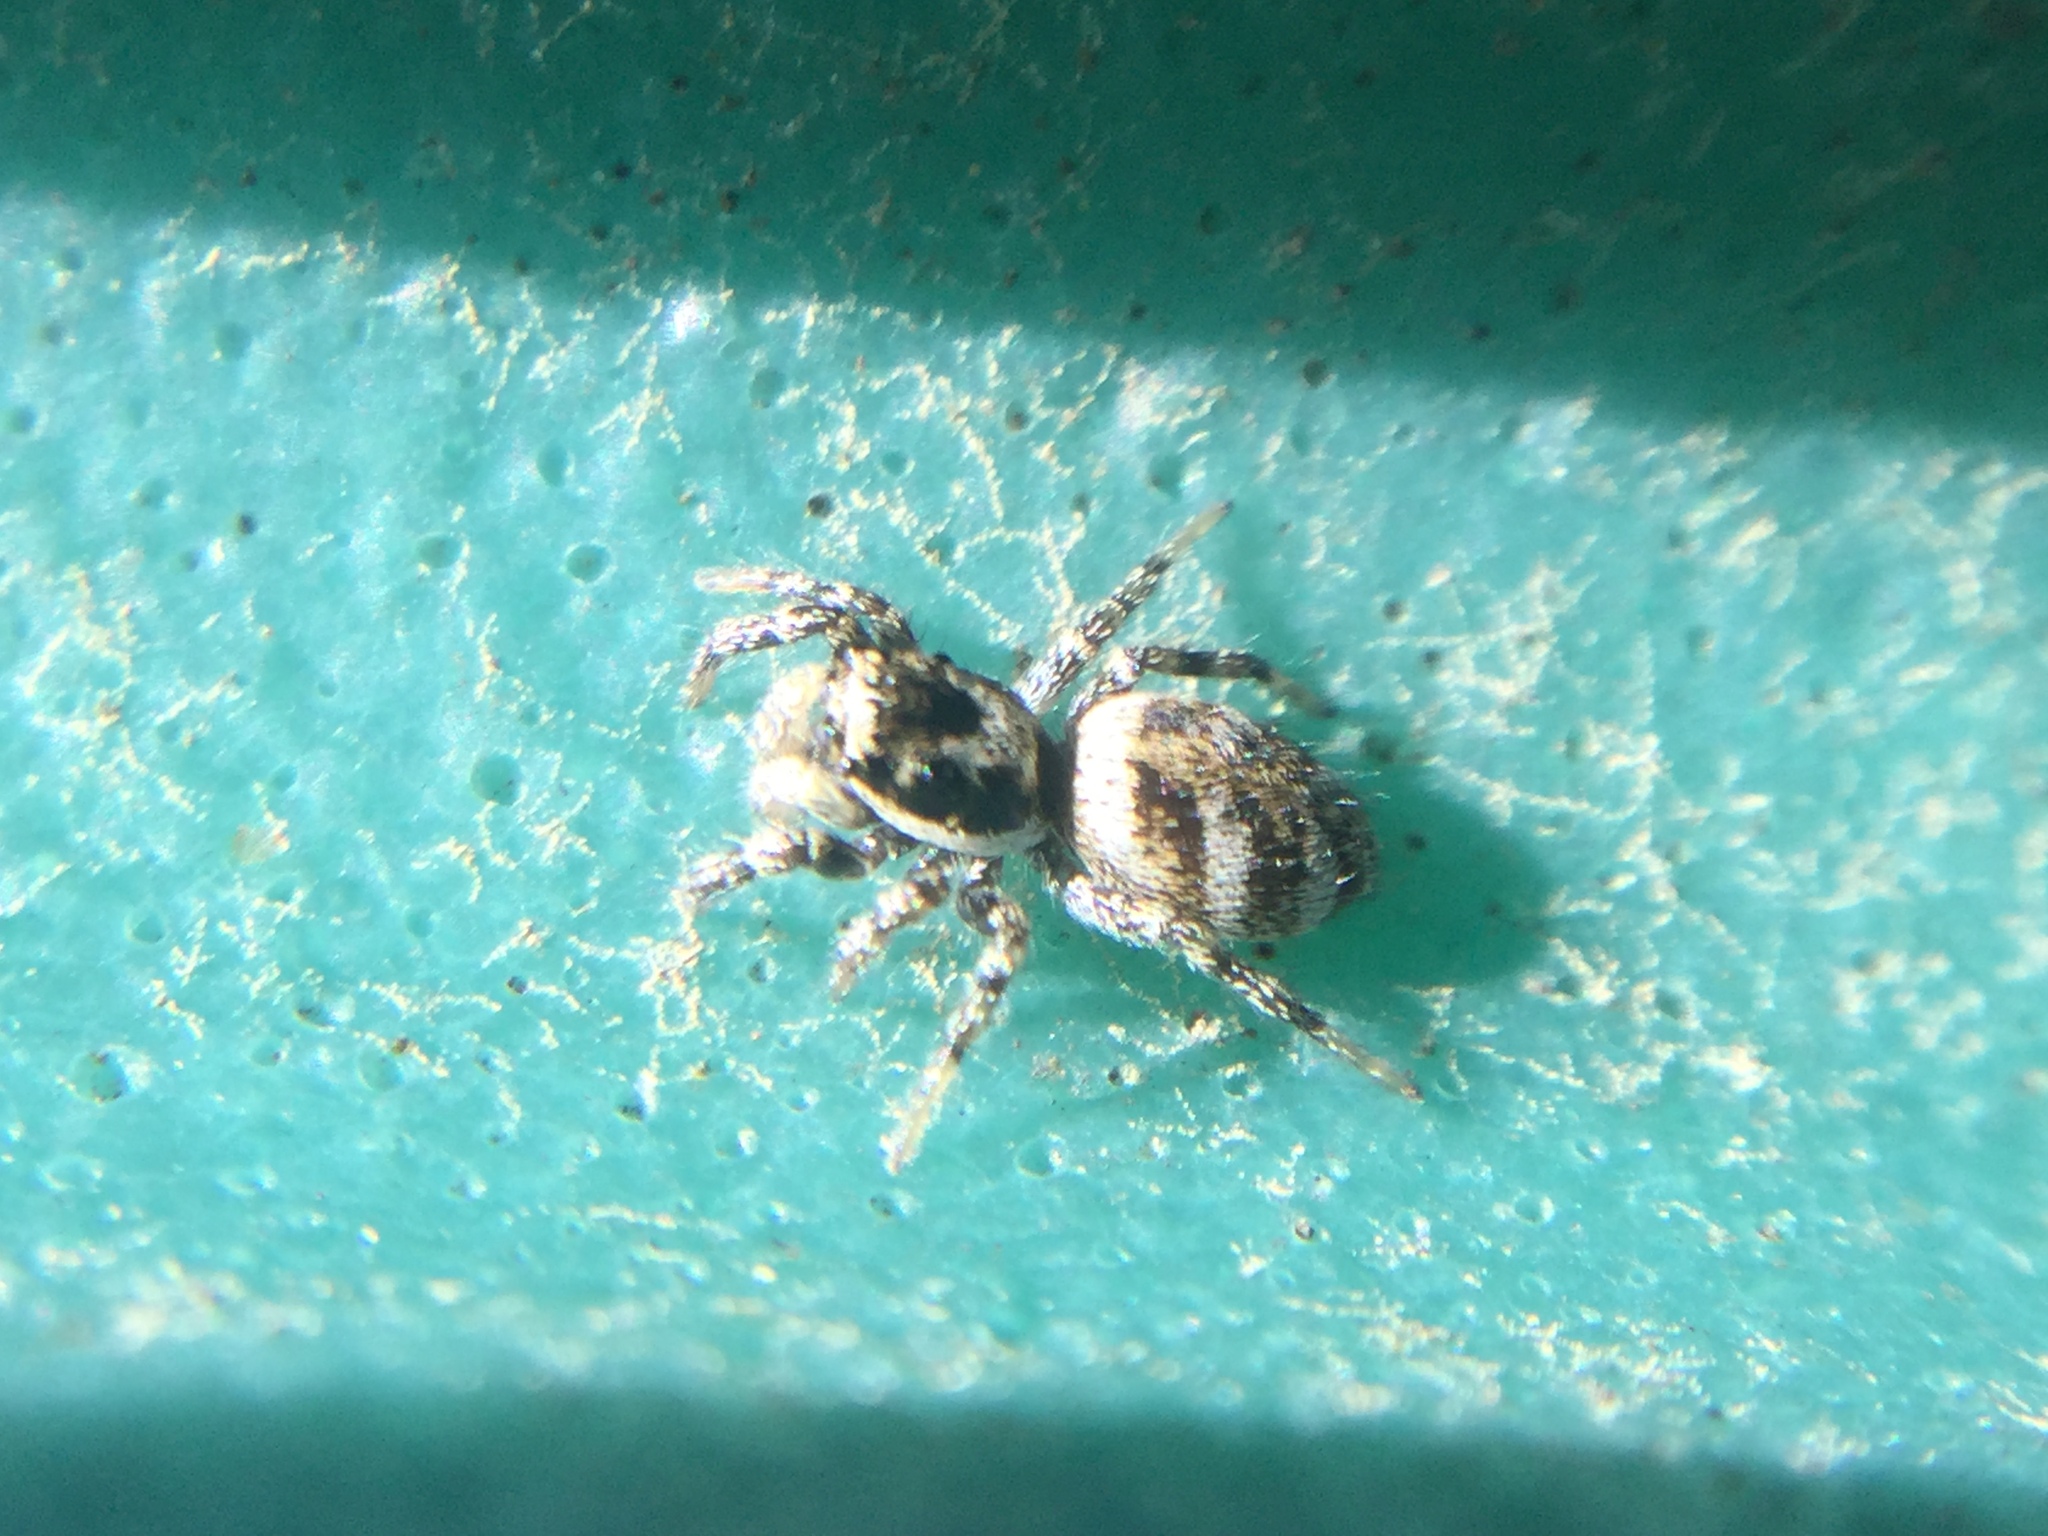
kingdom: Animalia
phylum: Arthropoda
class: Arachnida
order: Araneae
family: Salticidae
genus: Salticus
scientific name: Salticus scenicus
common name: Zebra jumper
